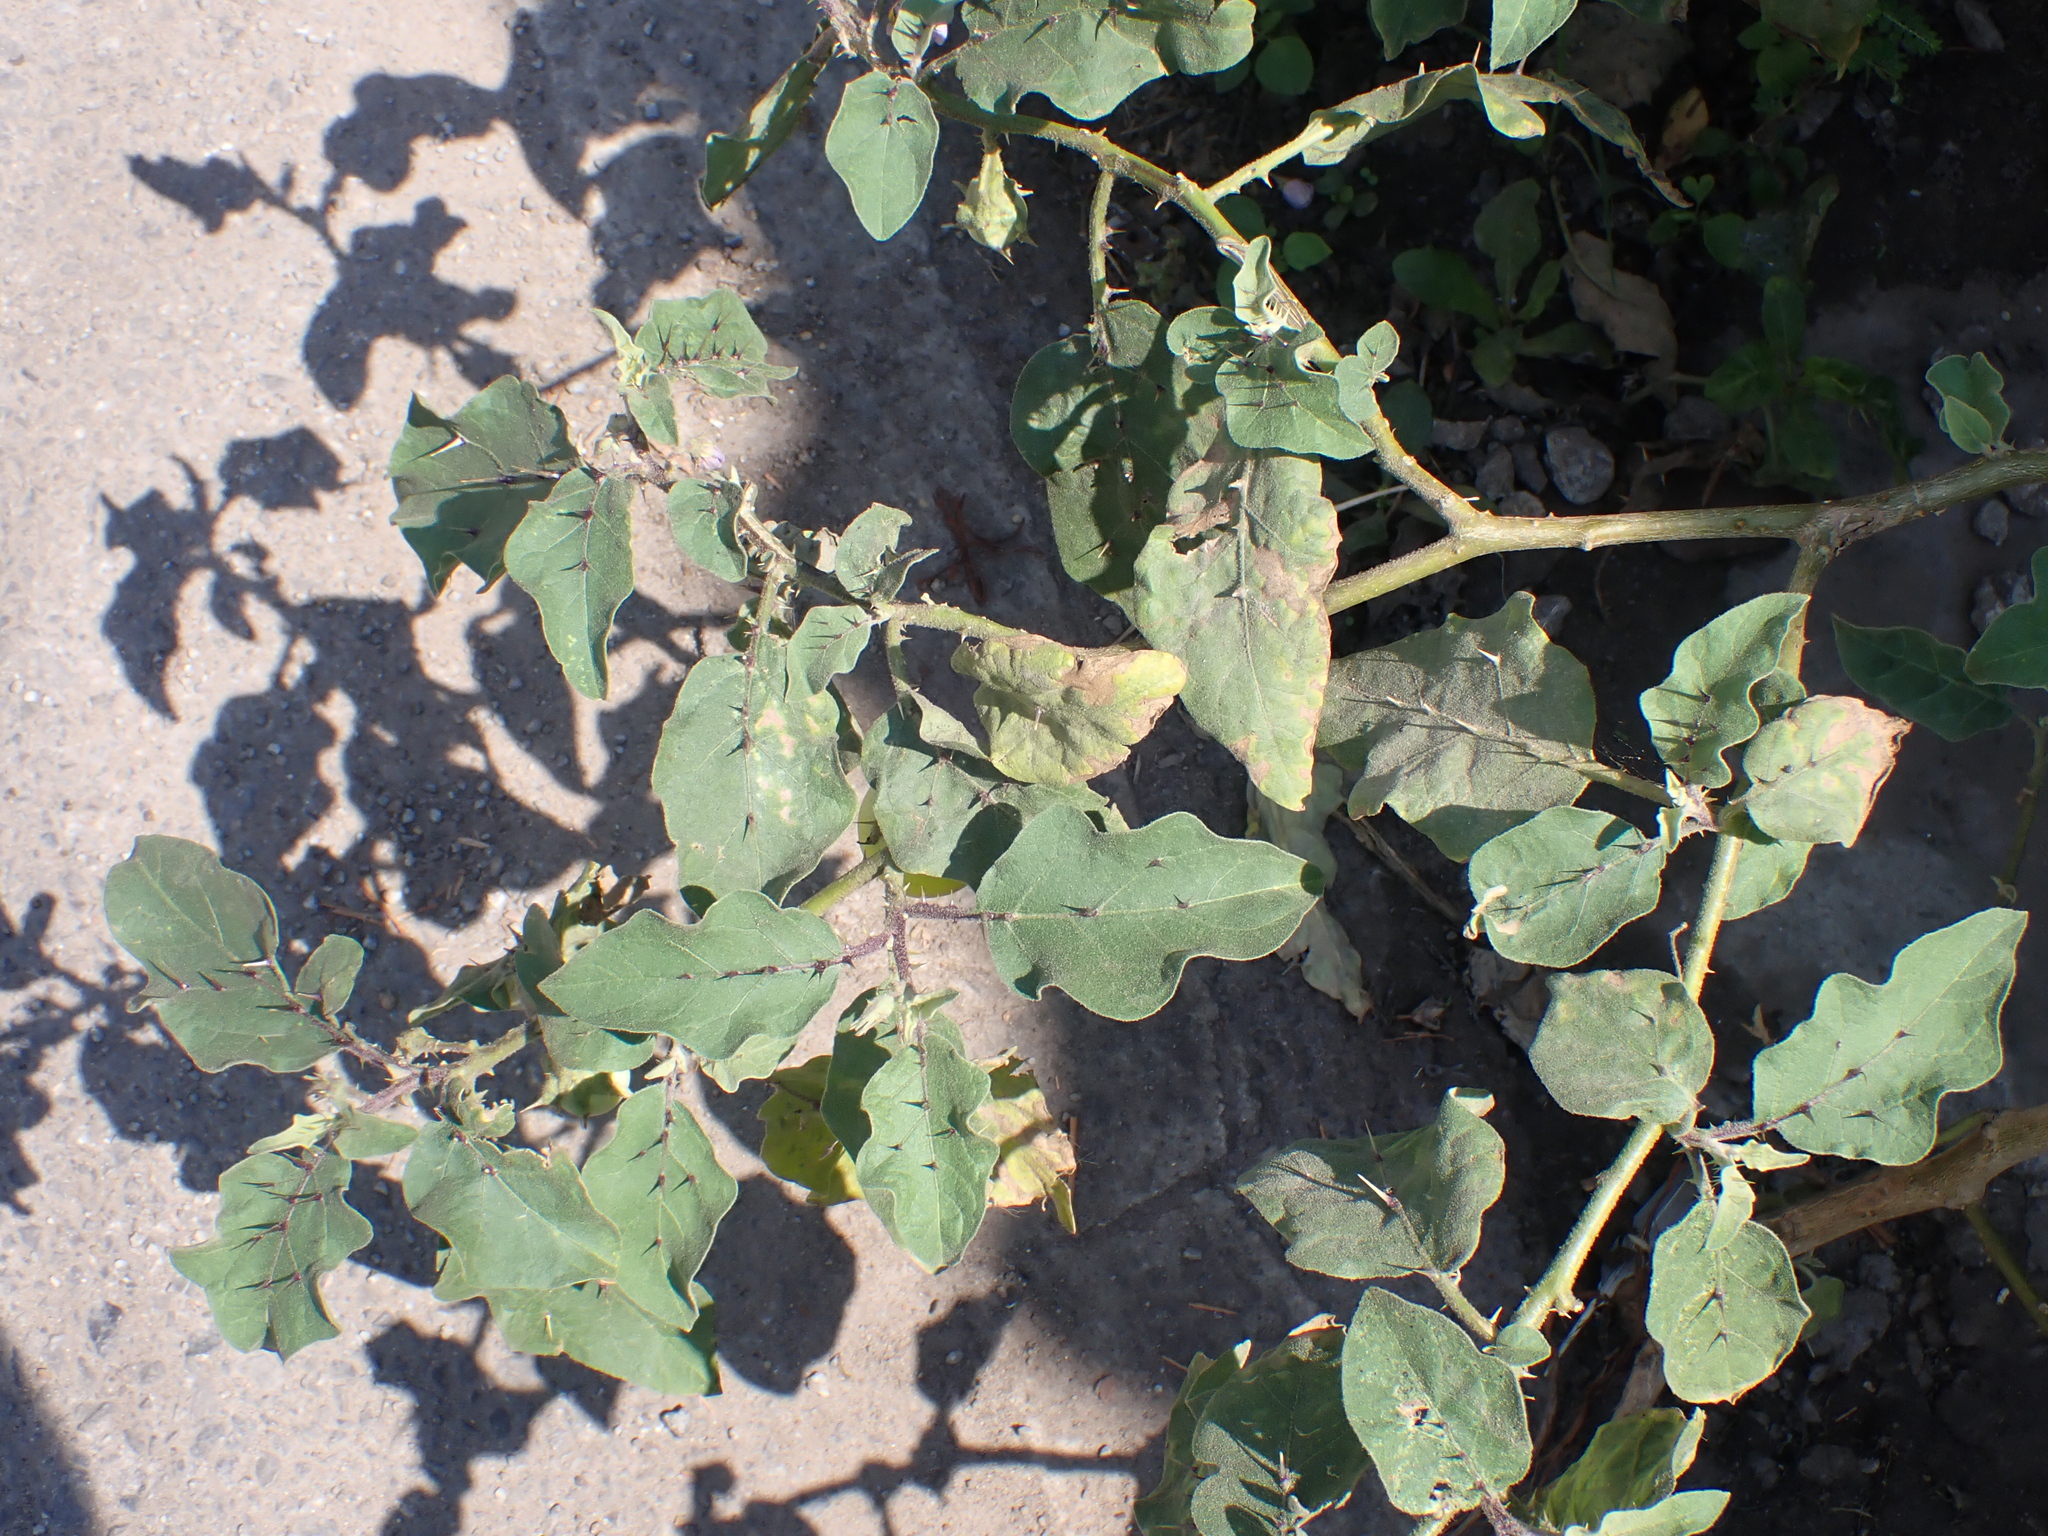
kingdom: Plantae
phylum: Tracheophyta
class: Magnoliopsida
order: Solanales
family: Solanaceae
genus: Solanum
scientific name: Solanum insanum
